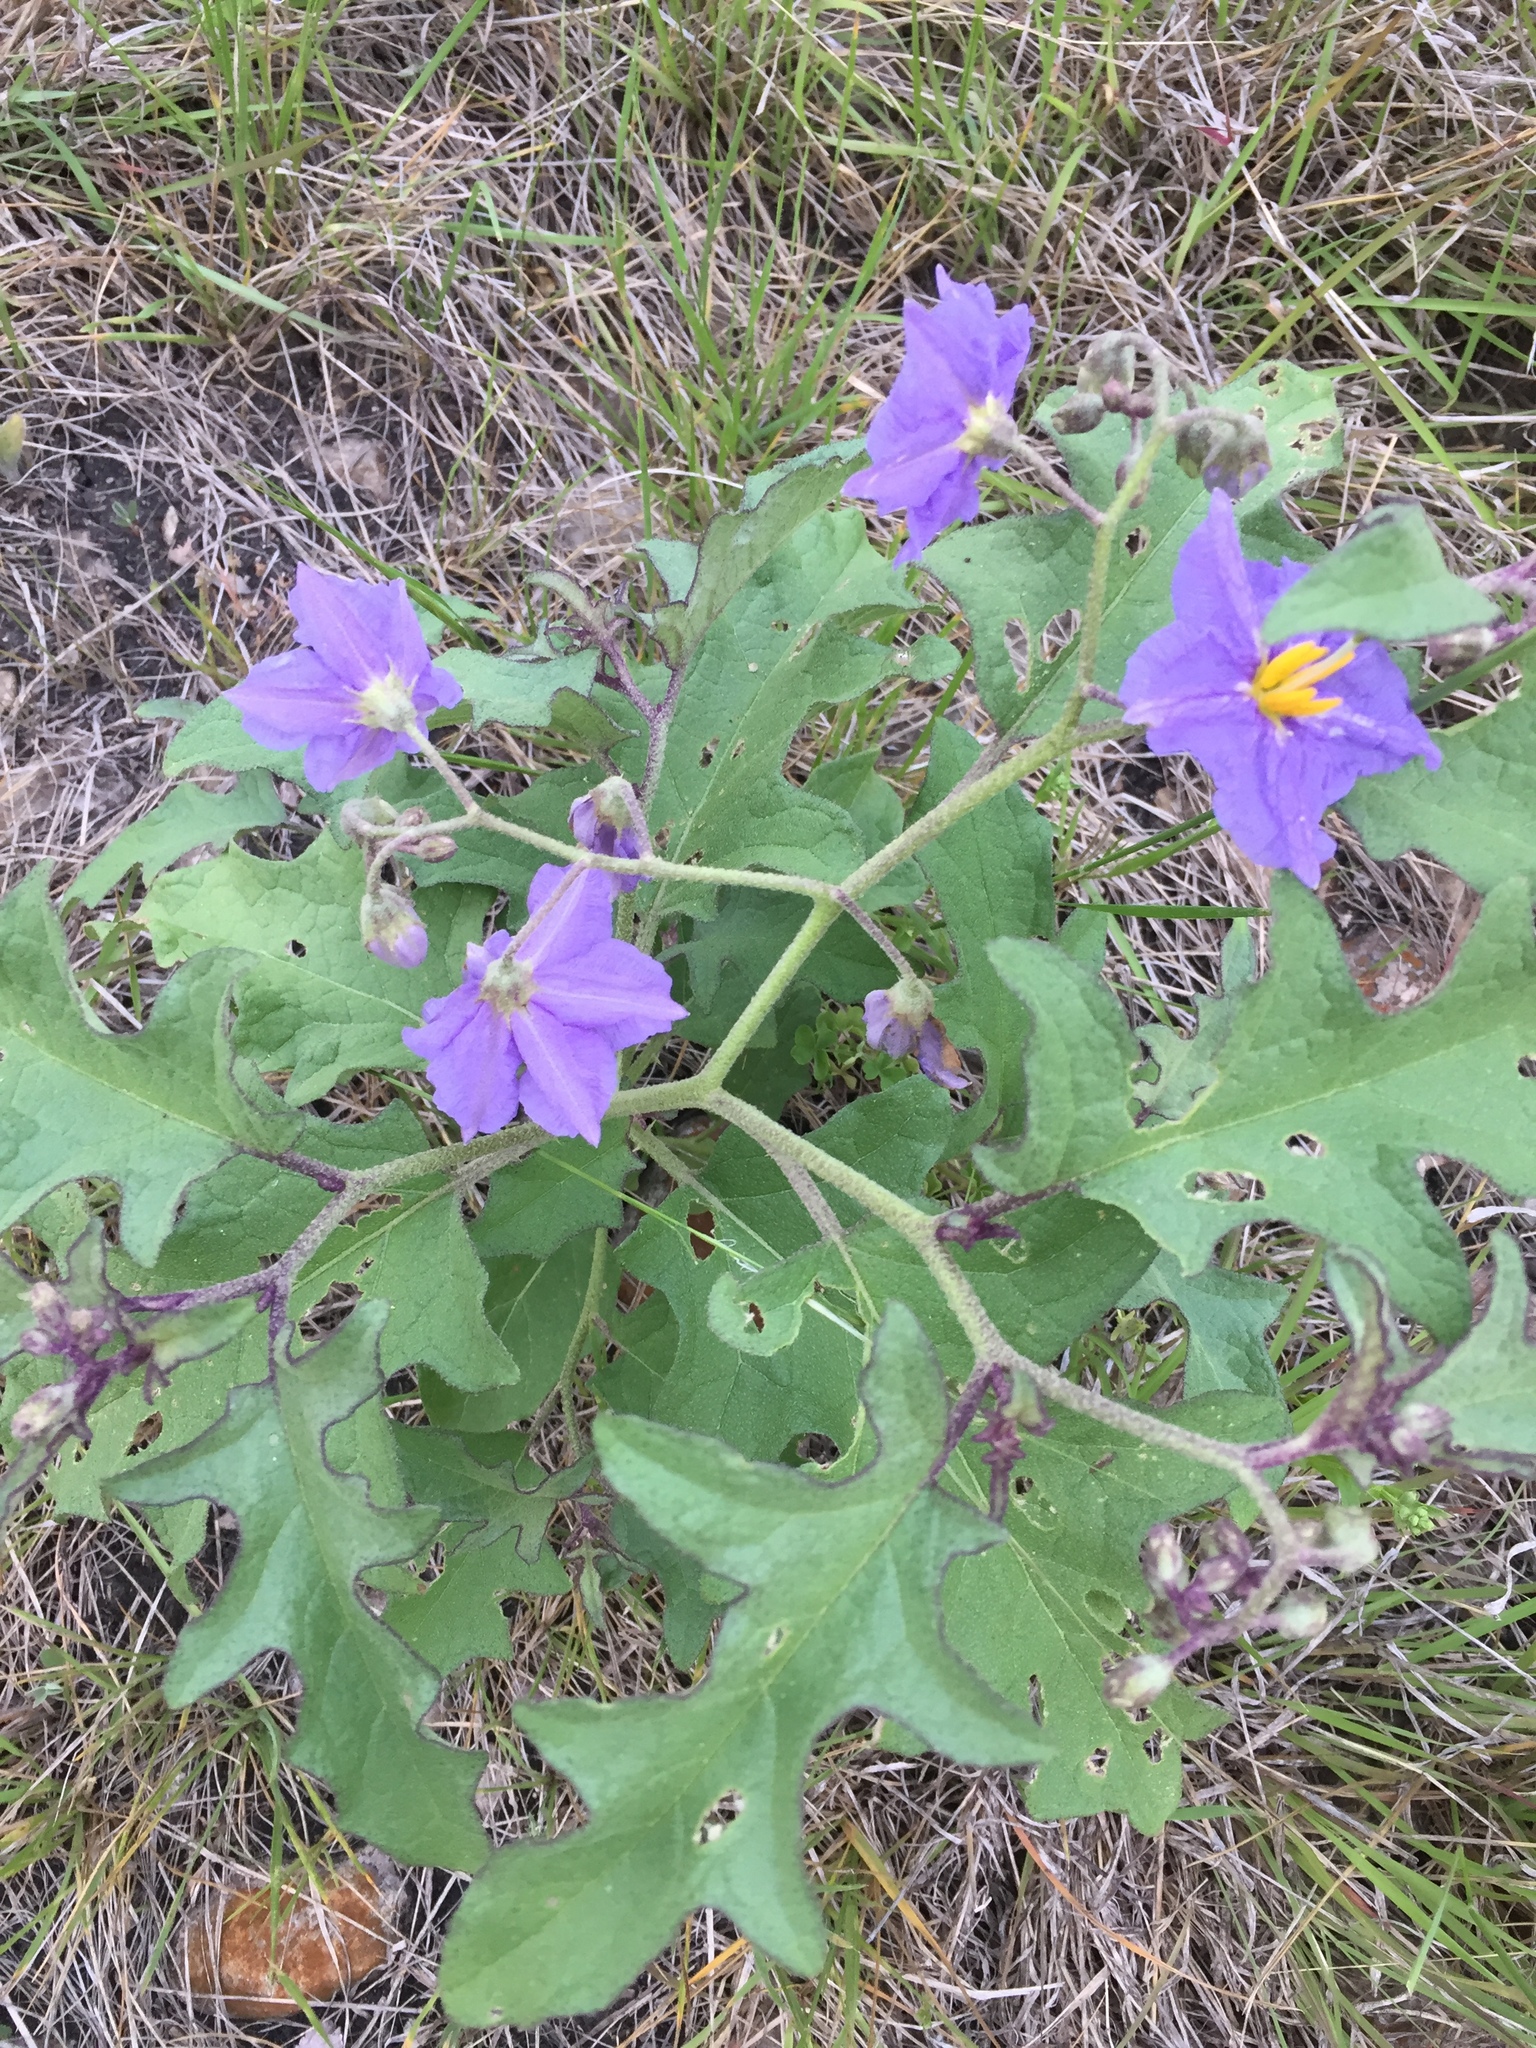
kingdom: Plantae
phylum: Tracheophyta
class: Magnoliopsida
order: Solanales
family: Solanaceae
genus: Solanum
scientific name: Solanum dimidiatum
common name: Carolina horse-nettle
